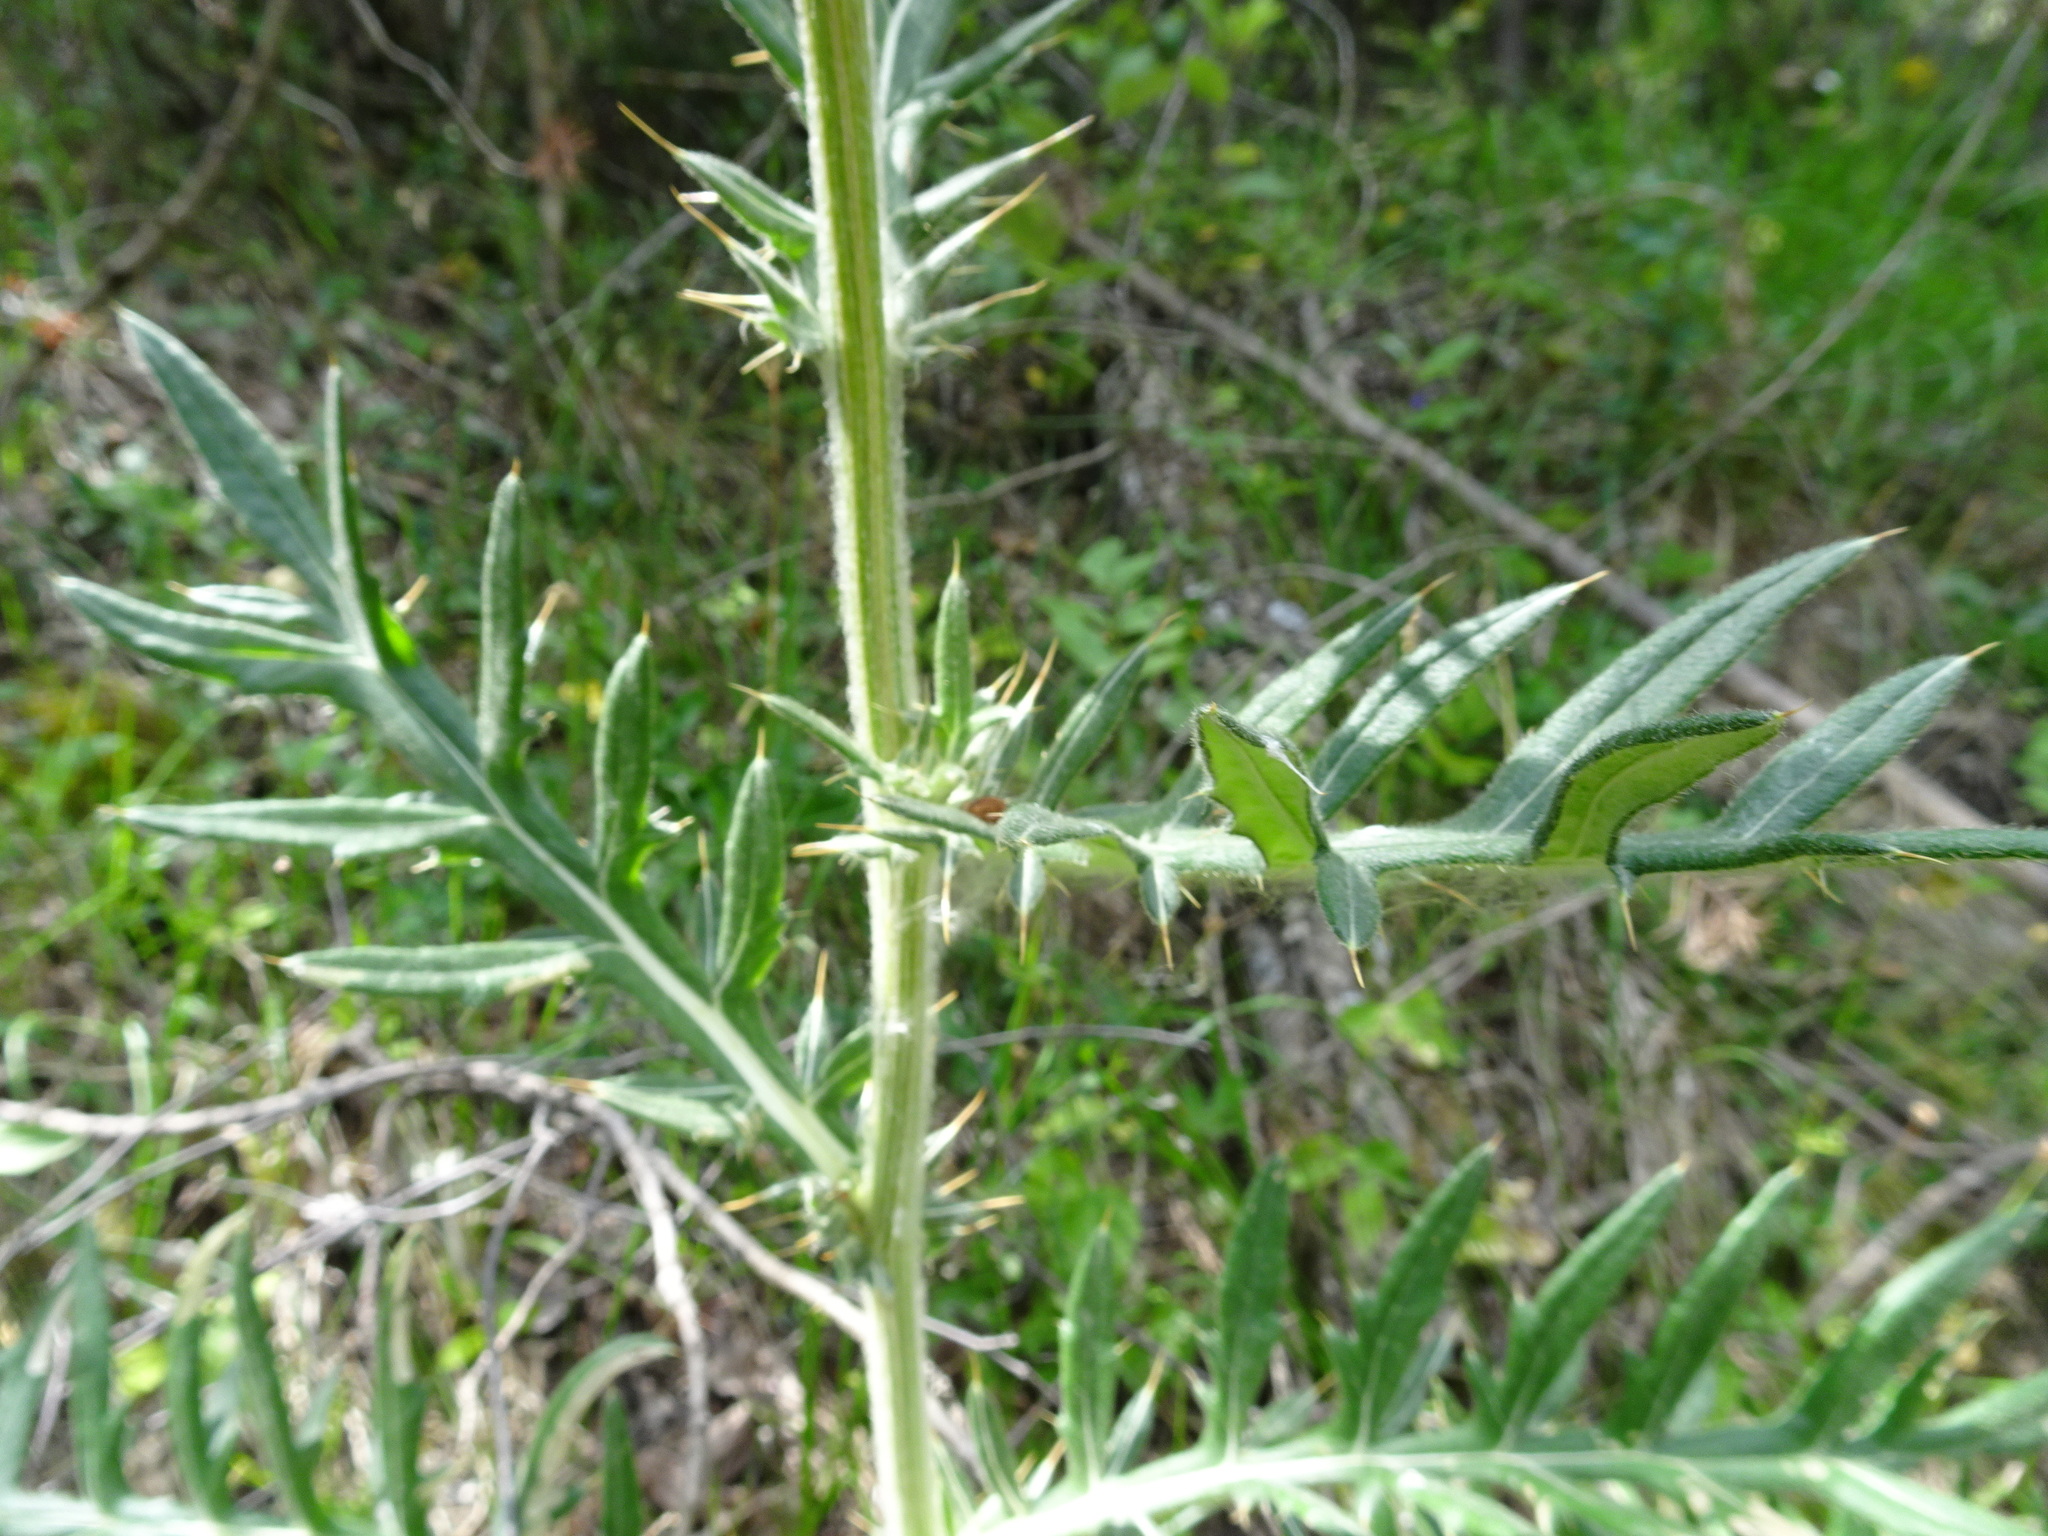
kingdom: Plantae
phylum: Tracheophyta
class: Magnoliopsida
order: Asterales
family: Asteraceae
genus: Lophiolepis
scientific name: Lophiolepis eriophora
